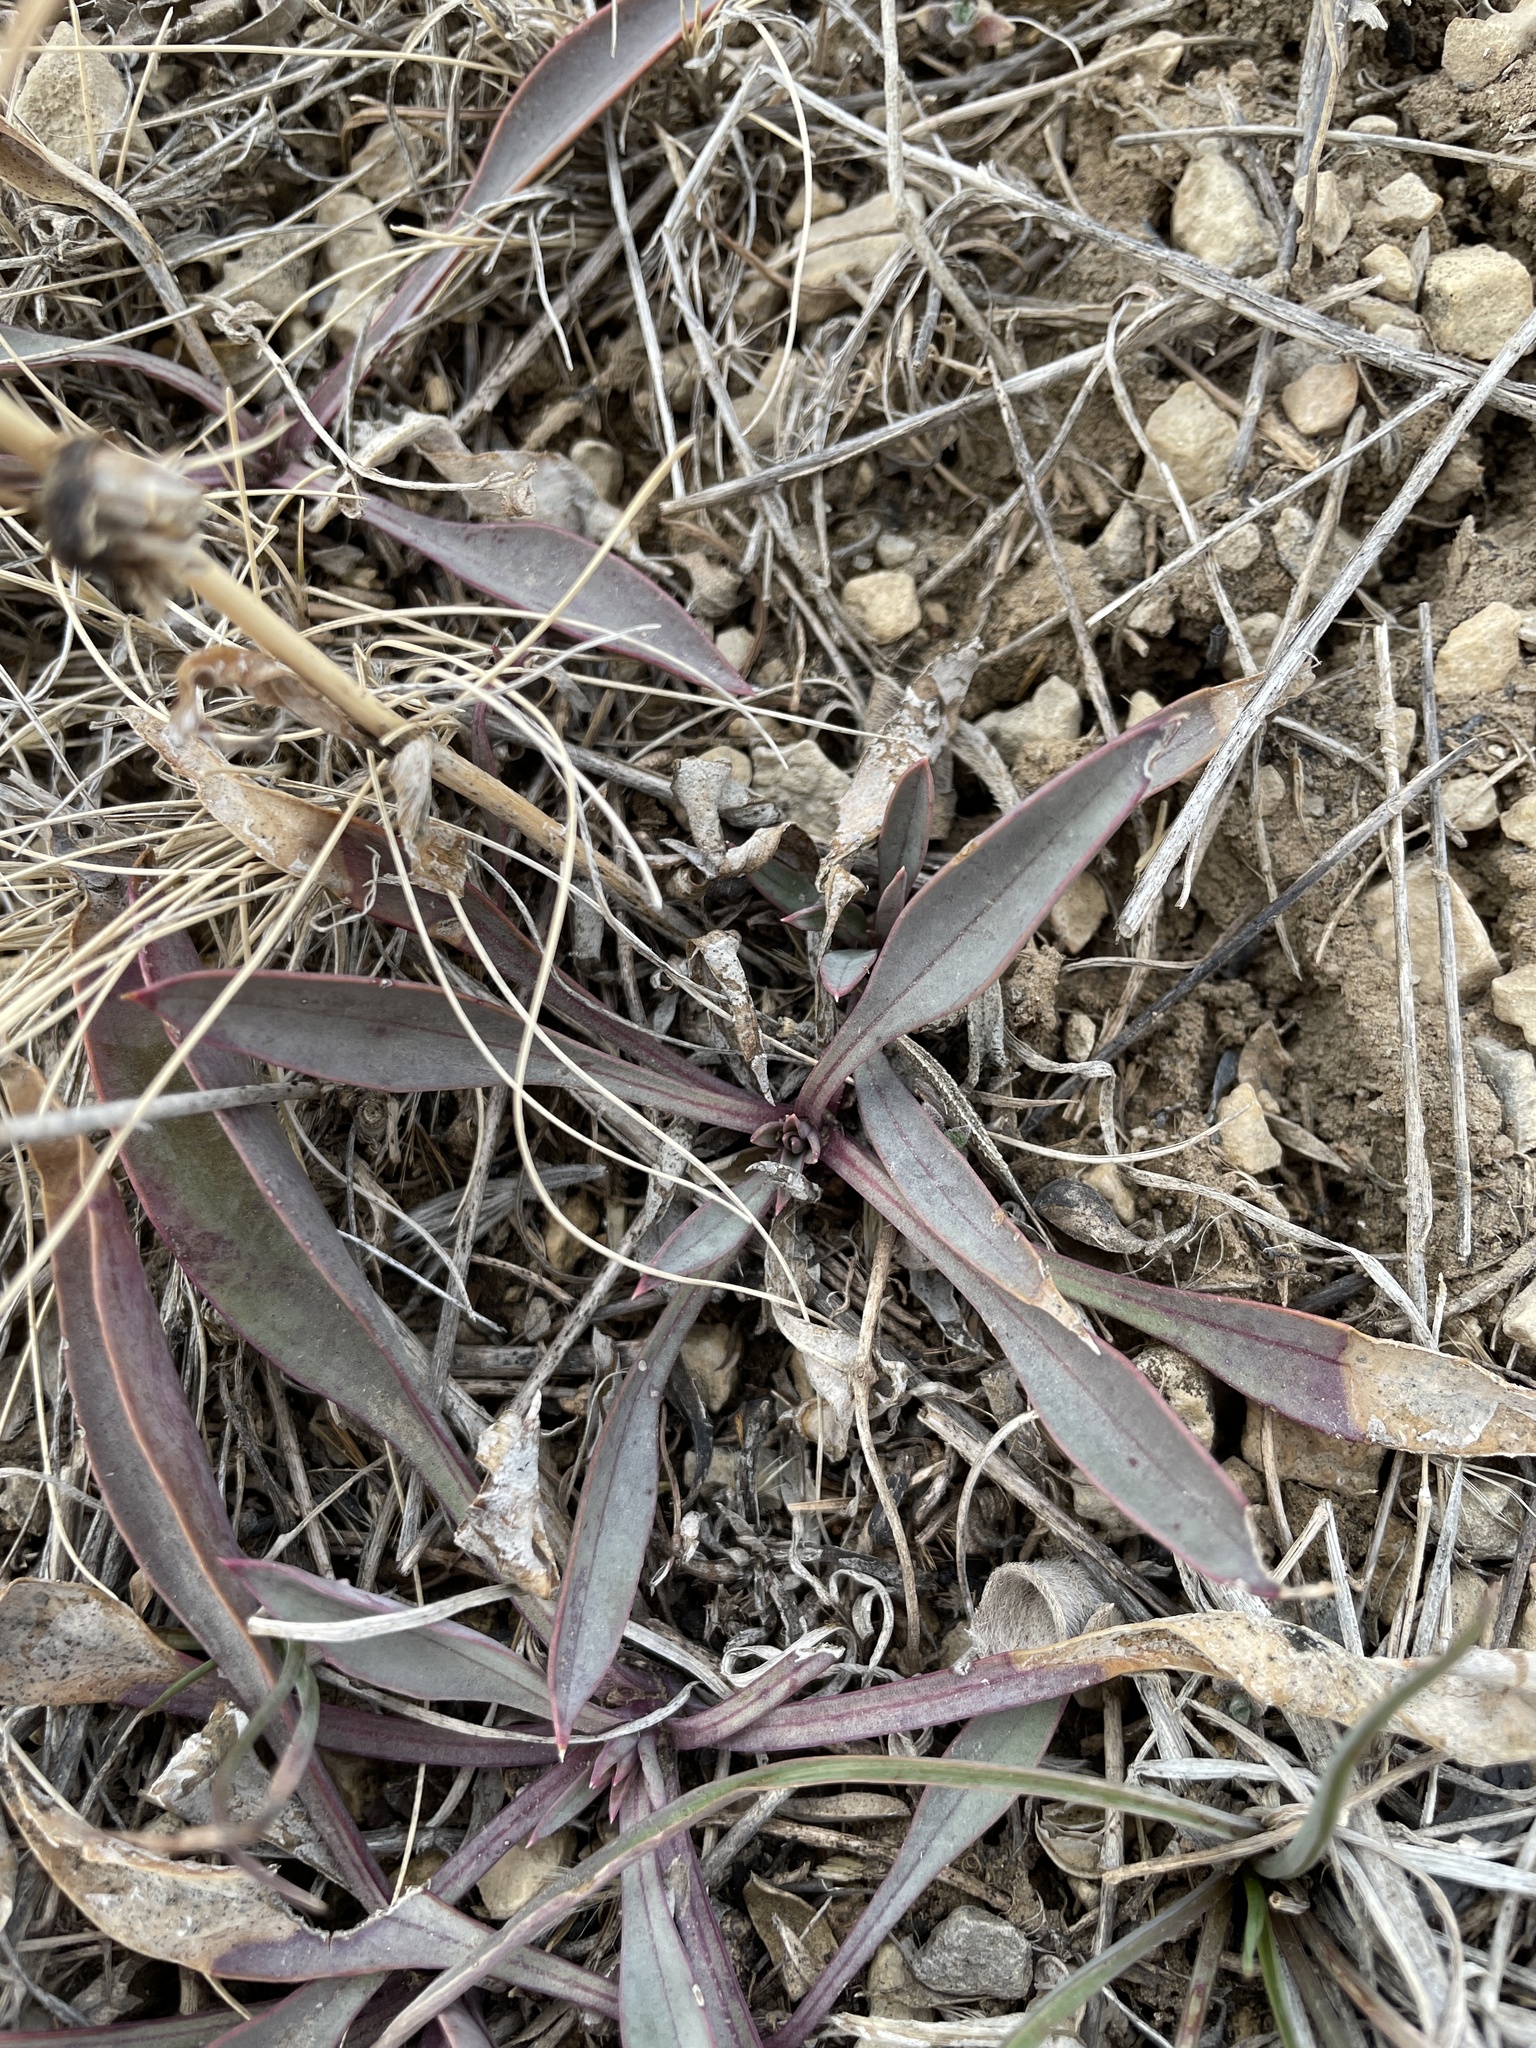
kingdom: Plantae
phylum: Tracheophyta
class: Magnoliopsida
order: Lamiales
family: Plantaginaceae
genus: Penstemon
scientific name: Penstemon secundiflorus
